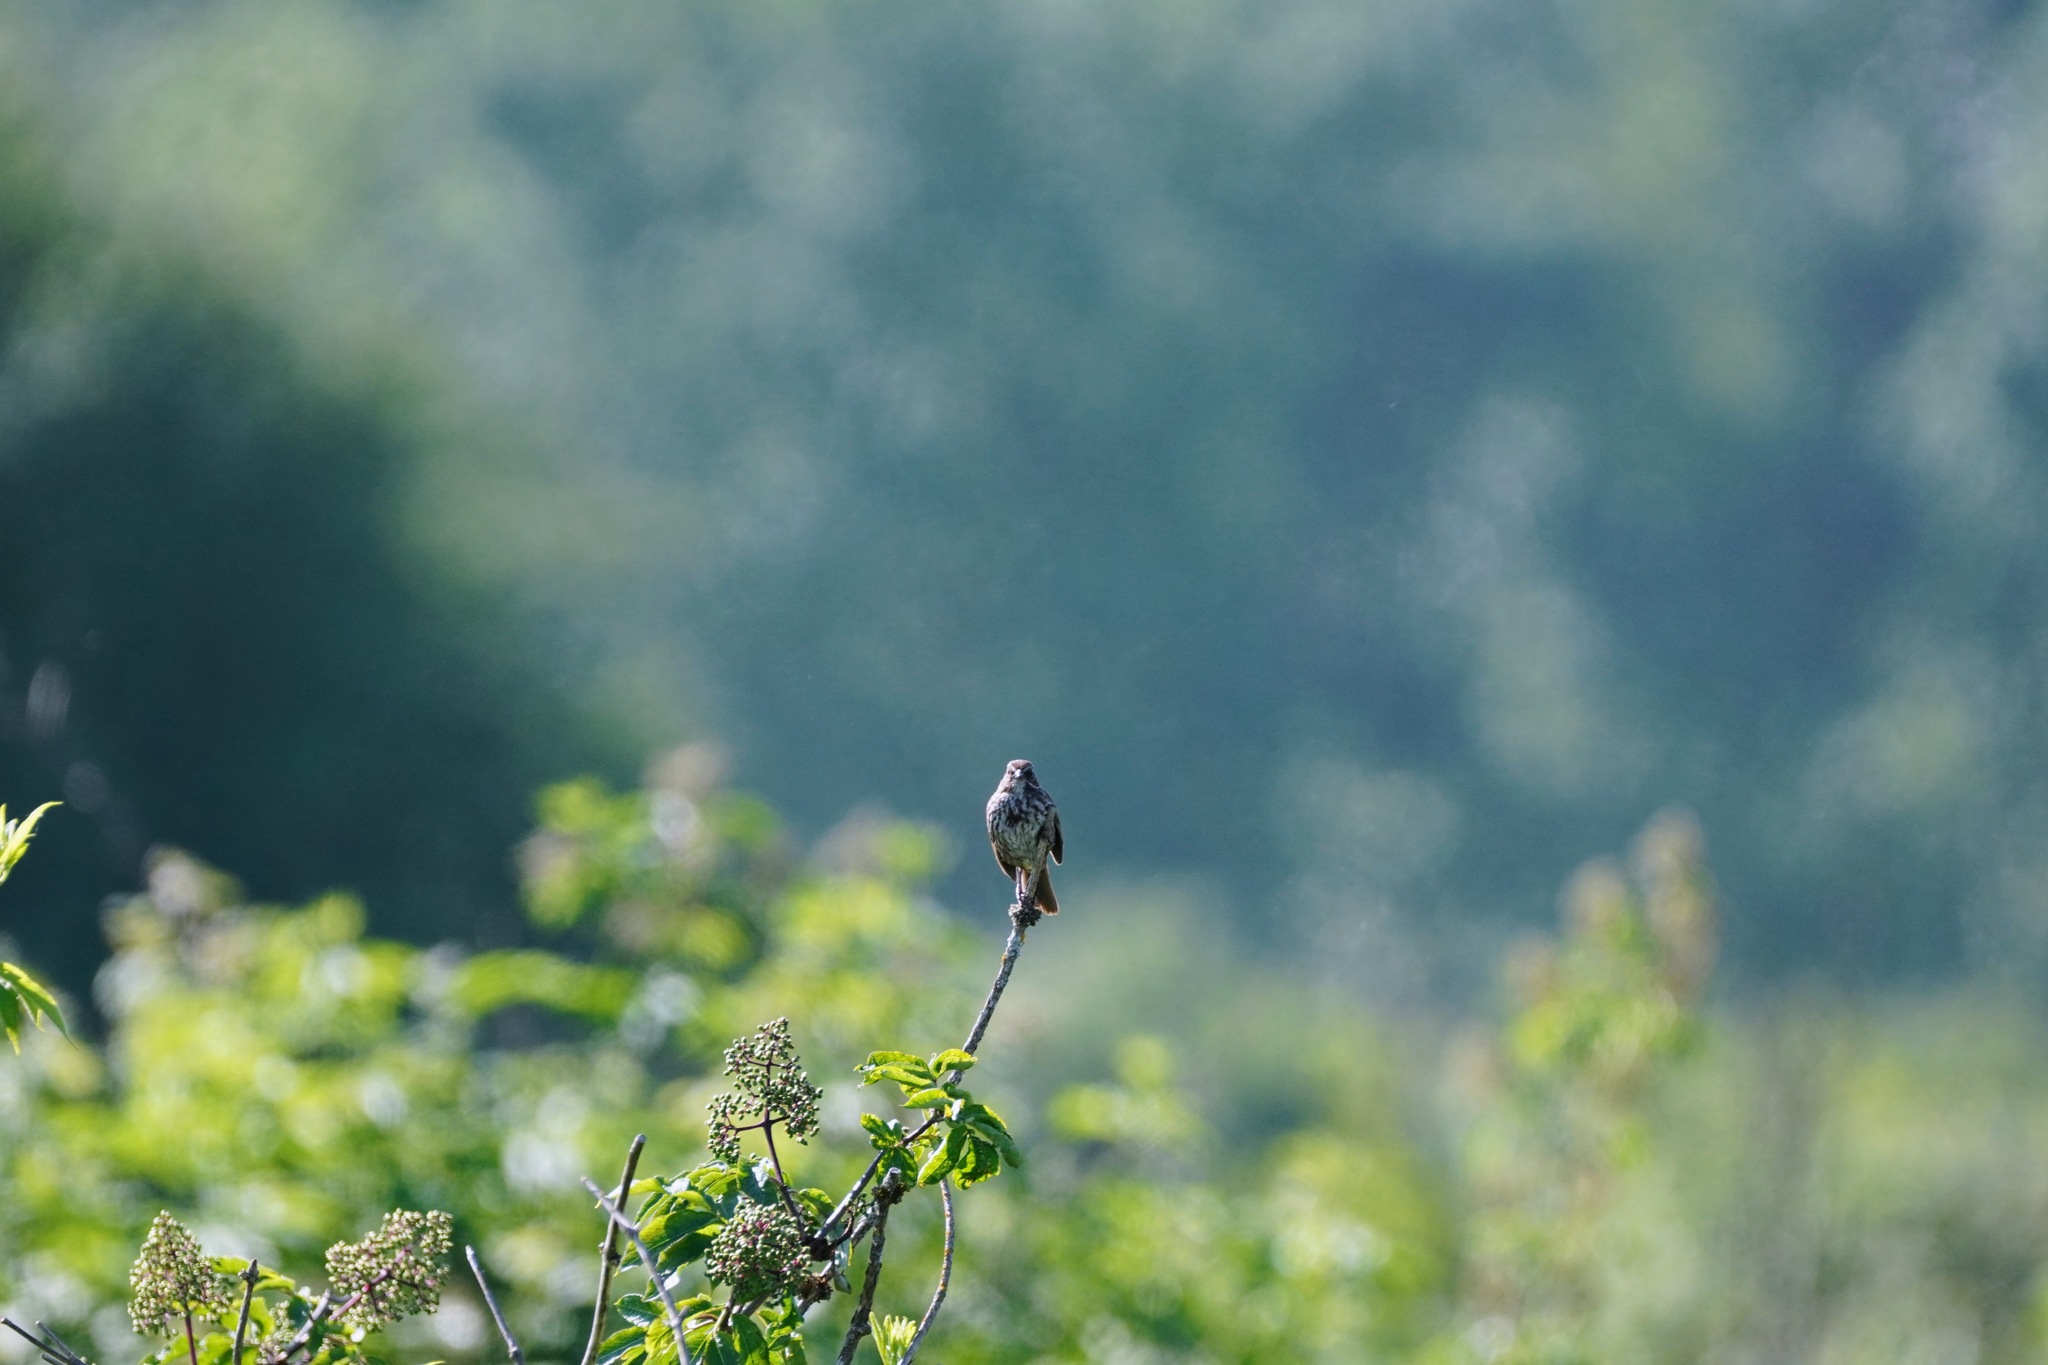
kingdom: Animalia
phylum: Chordata
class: Aves
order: Passeriformes
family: Passerellidae
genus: Melospiza
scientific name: Melospiza melodia
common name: Song sparrow
